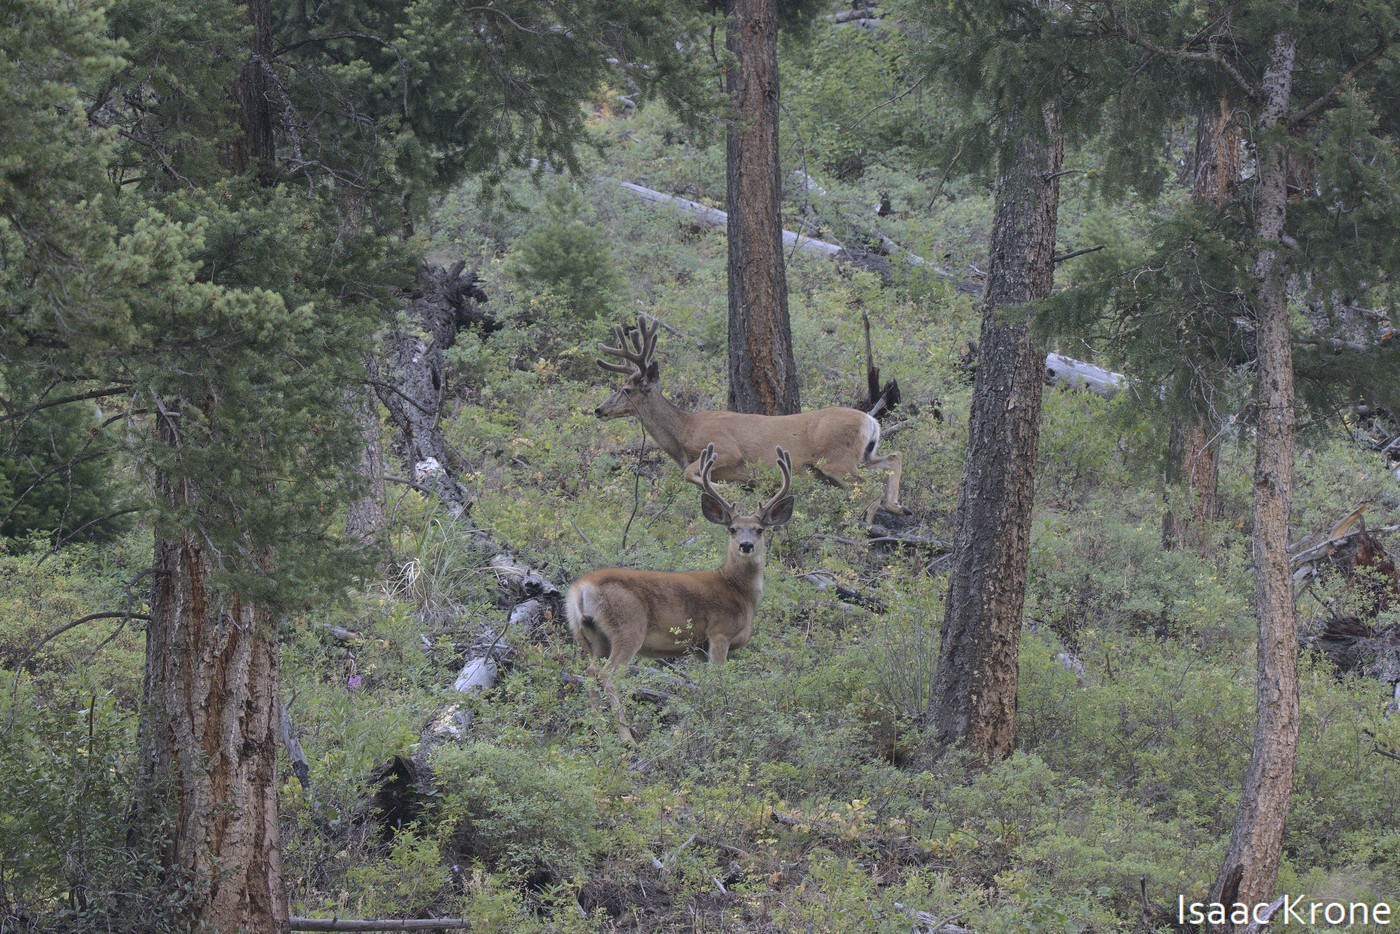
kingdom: Animalia
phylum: Chordata
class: Mammalia
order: Artiodactyla
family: Cervidae
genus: Odocoileus
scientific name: Odocoileus hemionus
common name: Mule deer
